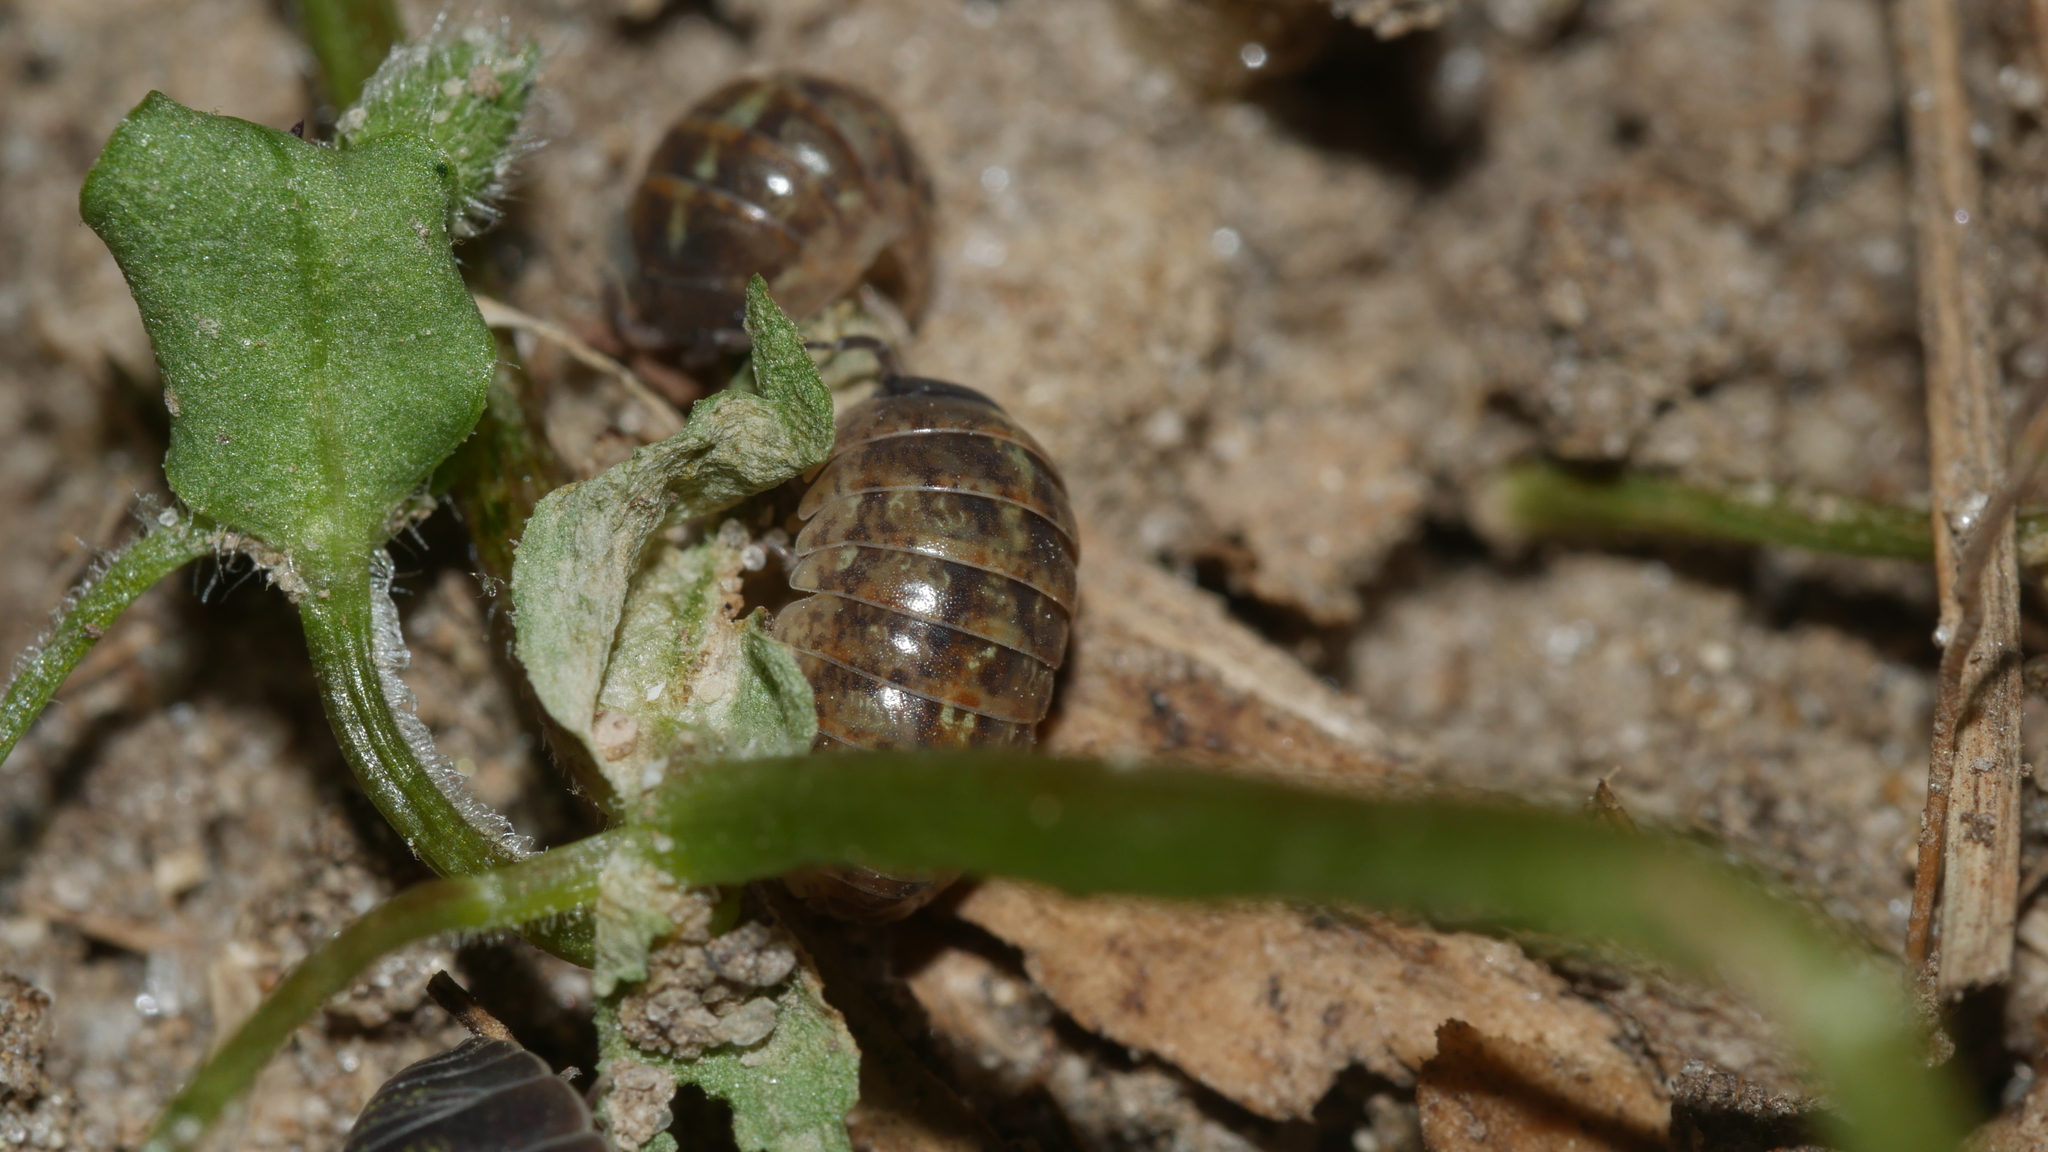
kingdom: Animalia
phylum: Arthropoda
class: Malacostraca
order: Isopoda
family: Armadillidiidae
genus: Armadillidium
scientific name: Armadillidium vulgare
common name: Common pill woodlouse
